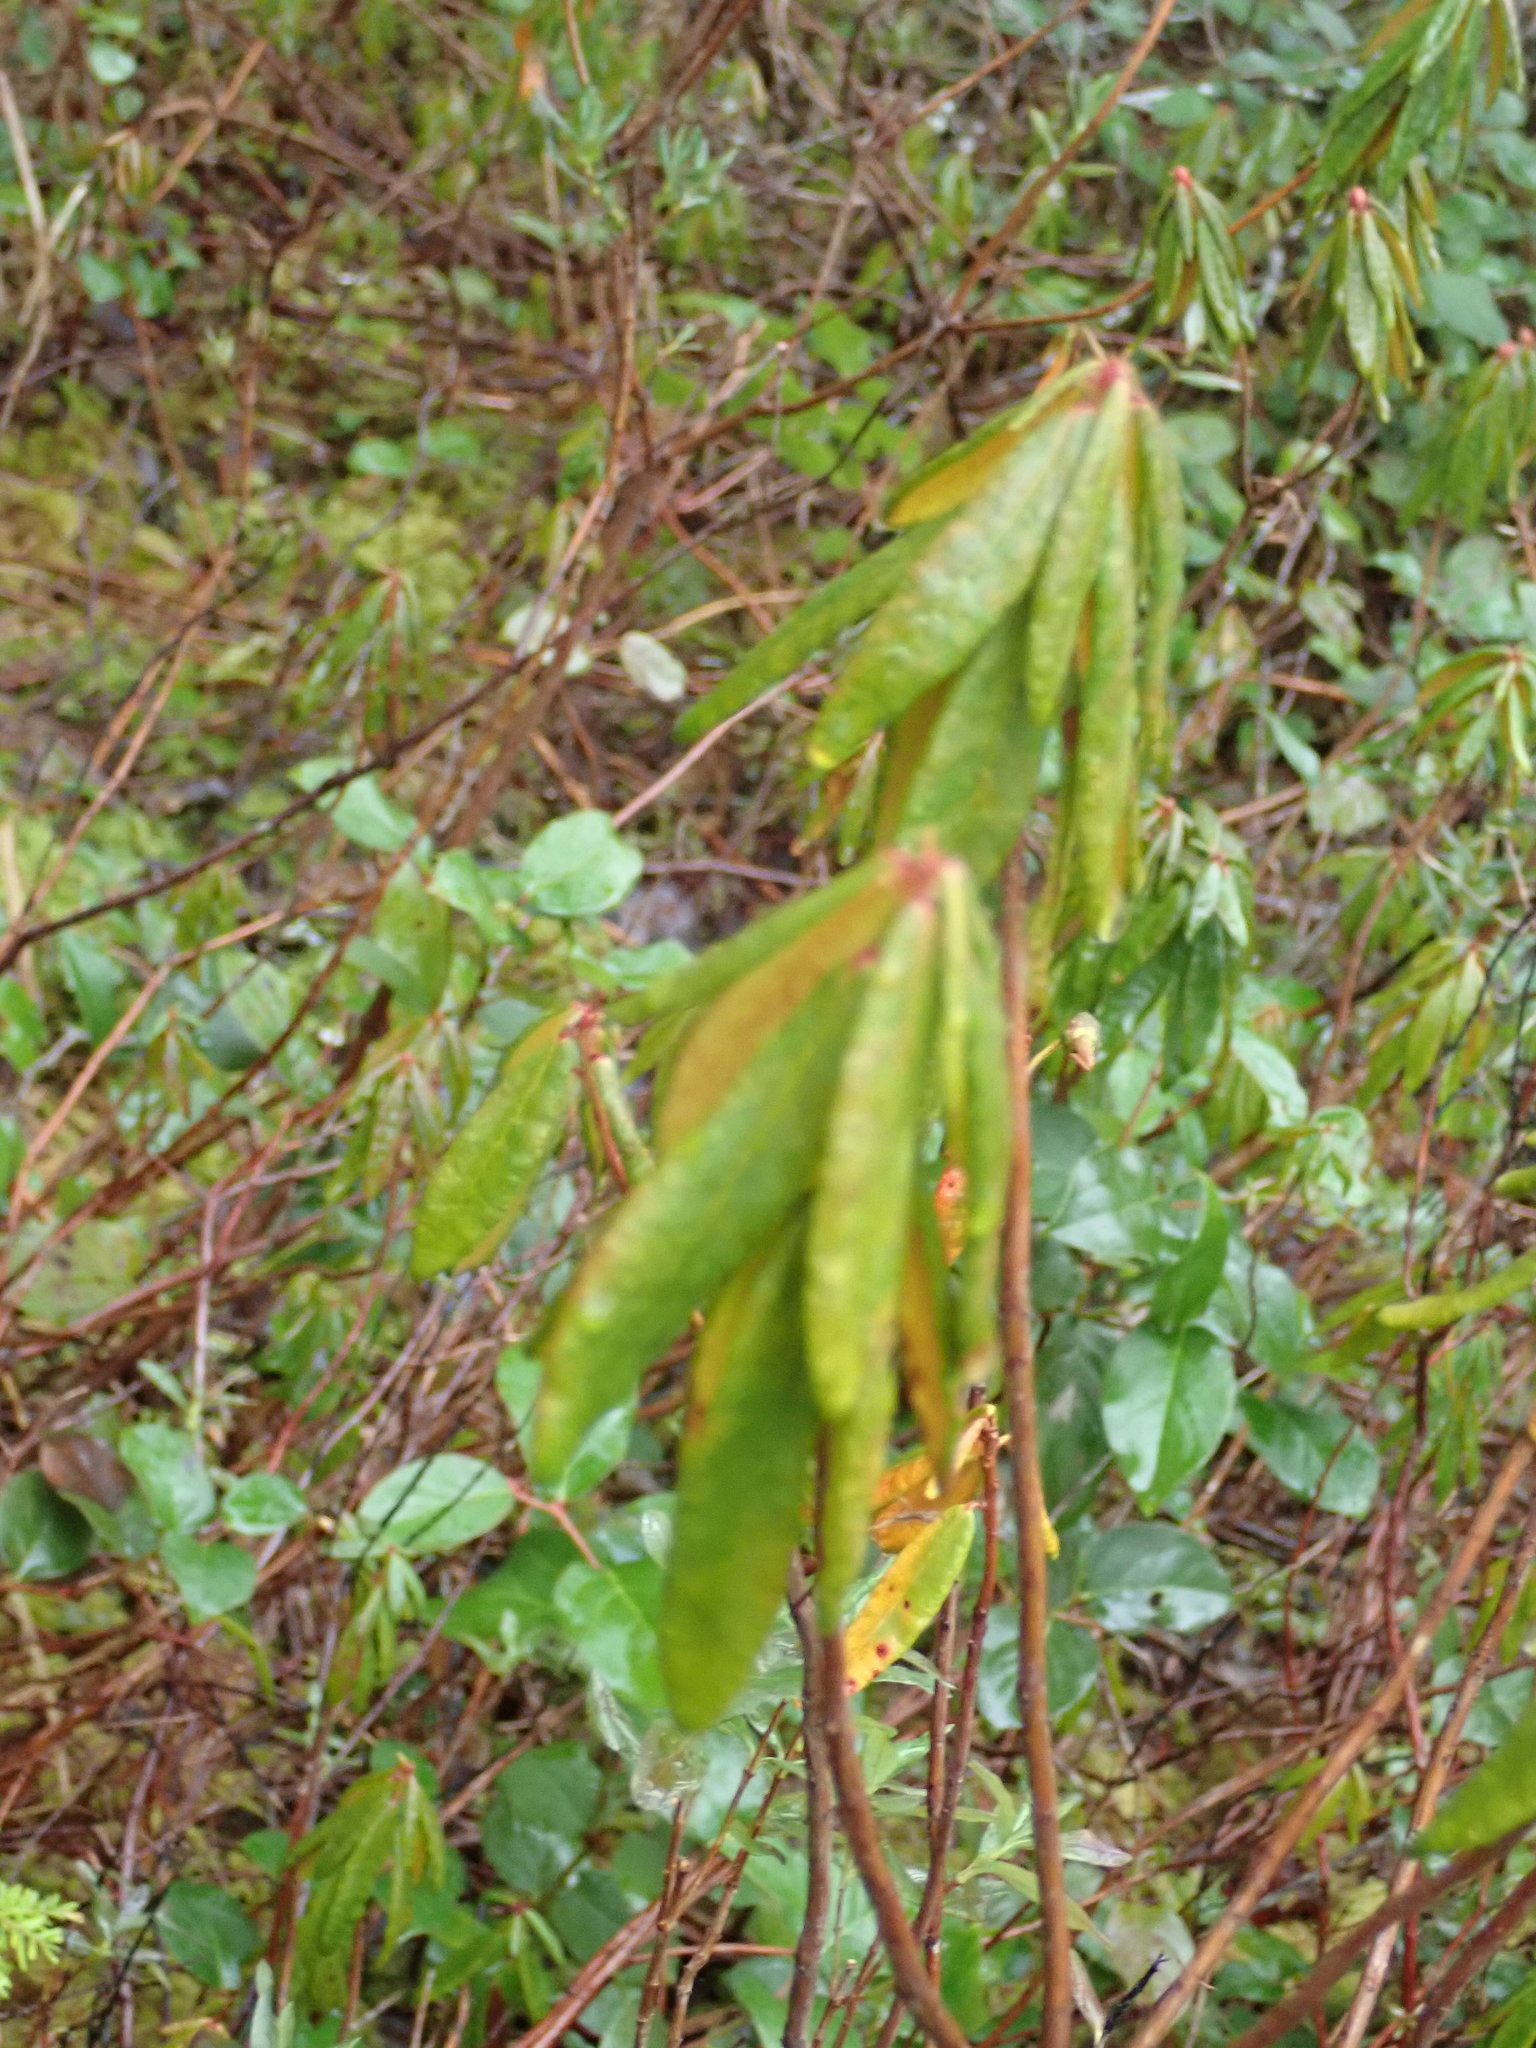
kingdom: Plantae
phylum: Tracheophyta
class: Magnoliopsida
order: Ericales
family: Ericaceae
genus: Rhododendron
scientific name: Rhododendron groenlandicum
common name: Bog labrador tea
